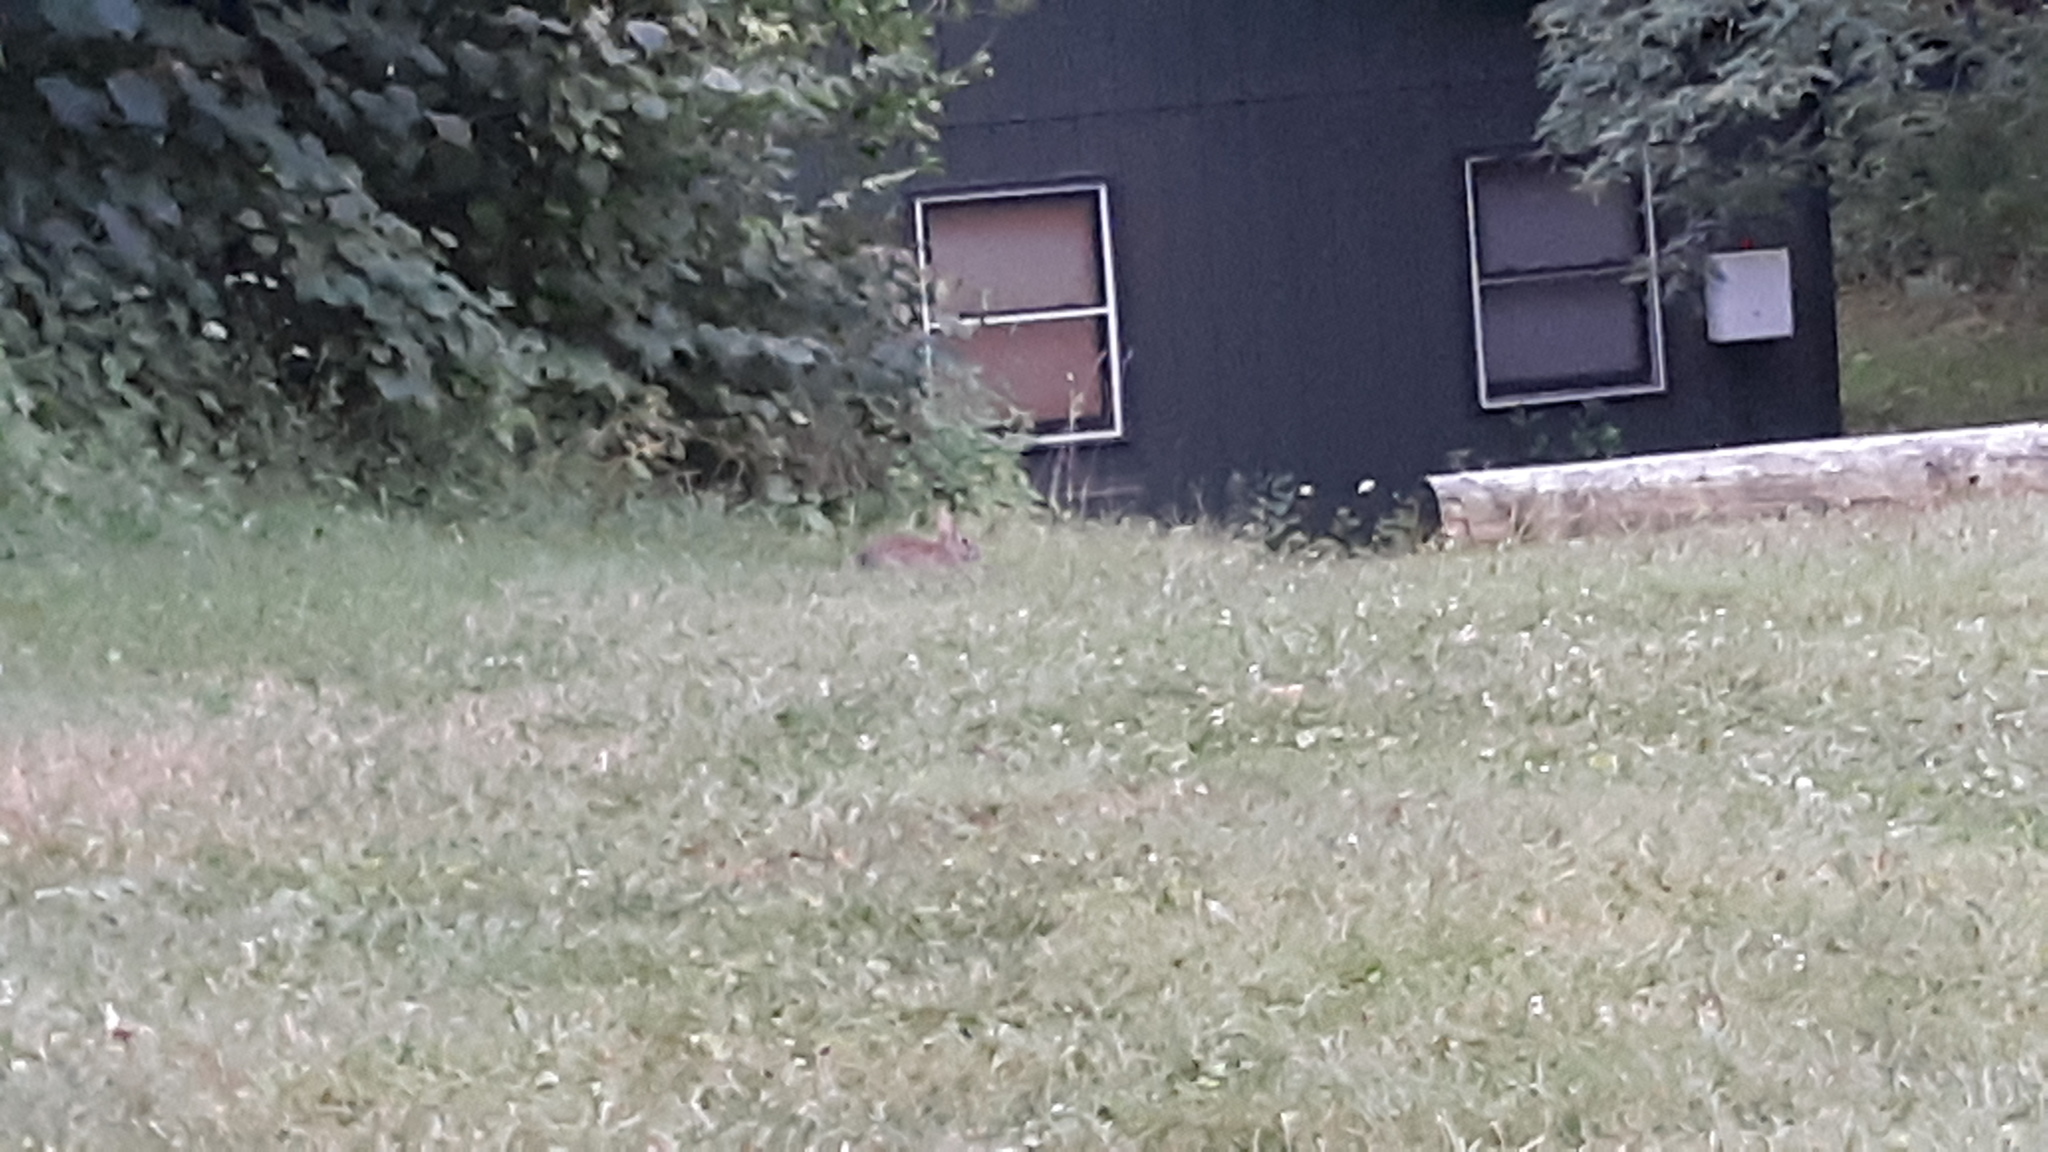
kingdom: Animalia
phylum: Chordata
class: Mammalia
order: Lagomorpha
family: Leporidae
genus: Sylvilagus
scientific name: Sylvilagus floridanus
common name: Eastern cottontail
